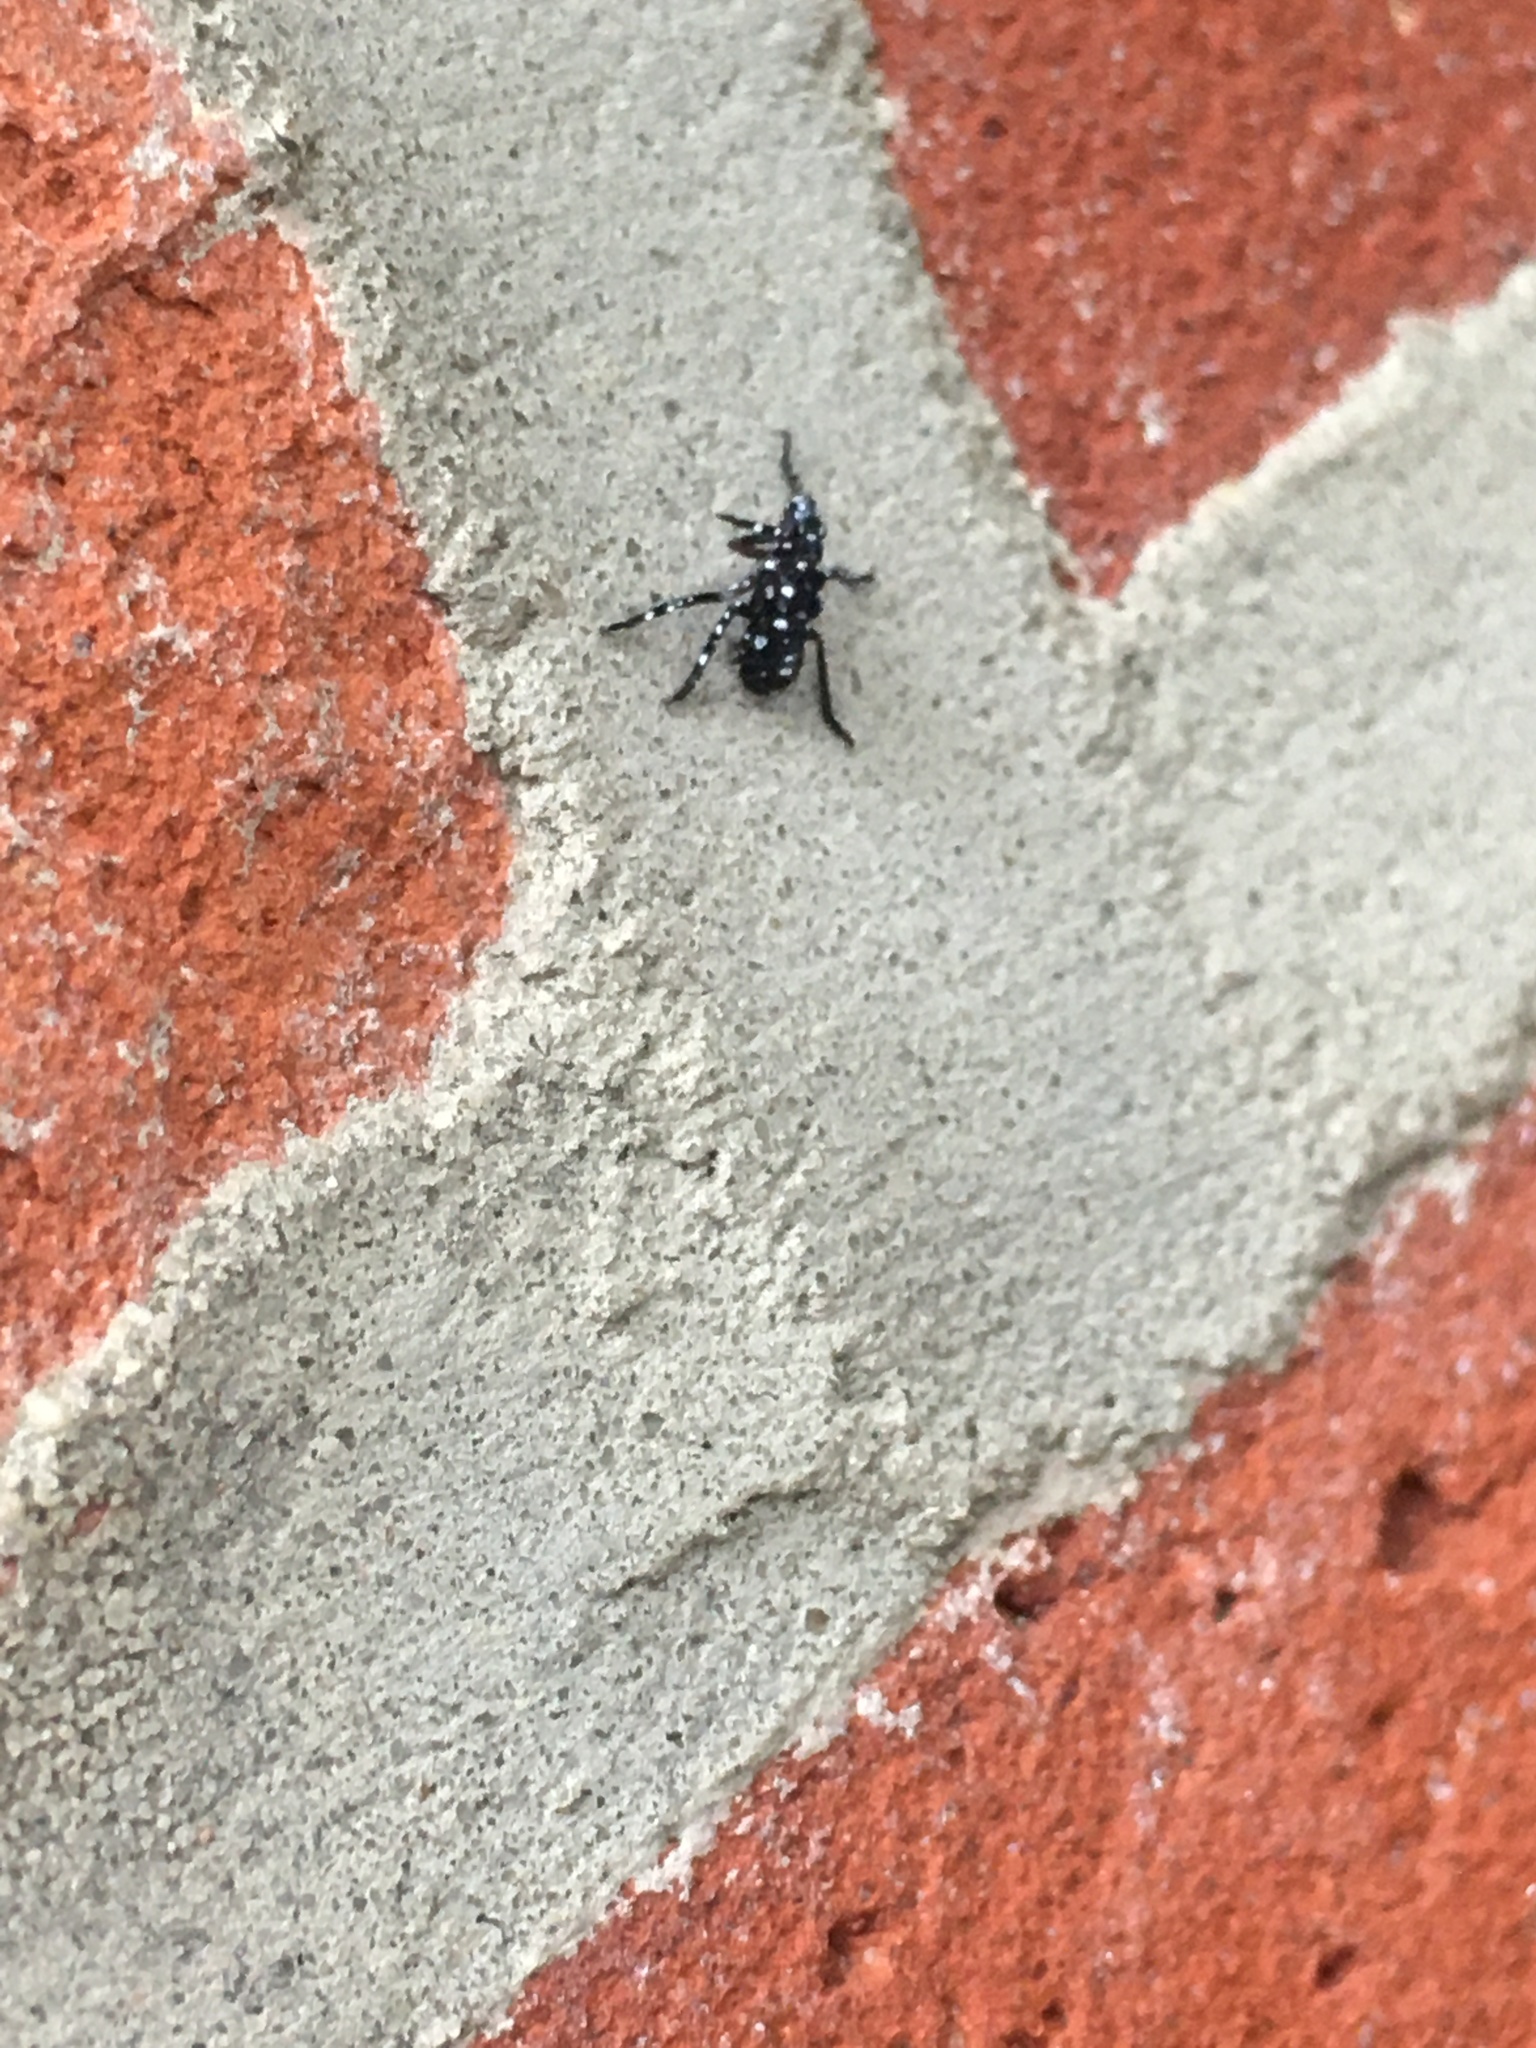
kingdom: Animalia
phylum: Arthropoda
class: Insecta
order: Hemiptera
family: Fulgoridae
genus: Lycorma
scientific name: Lycorma delicatula
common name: Spotted lanternfly
